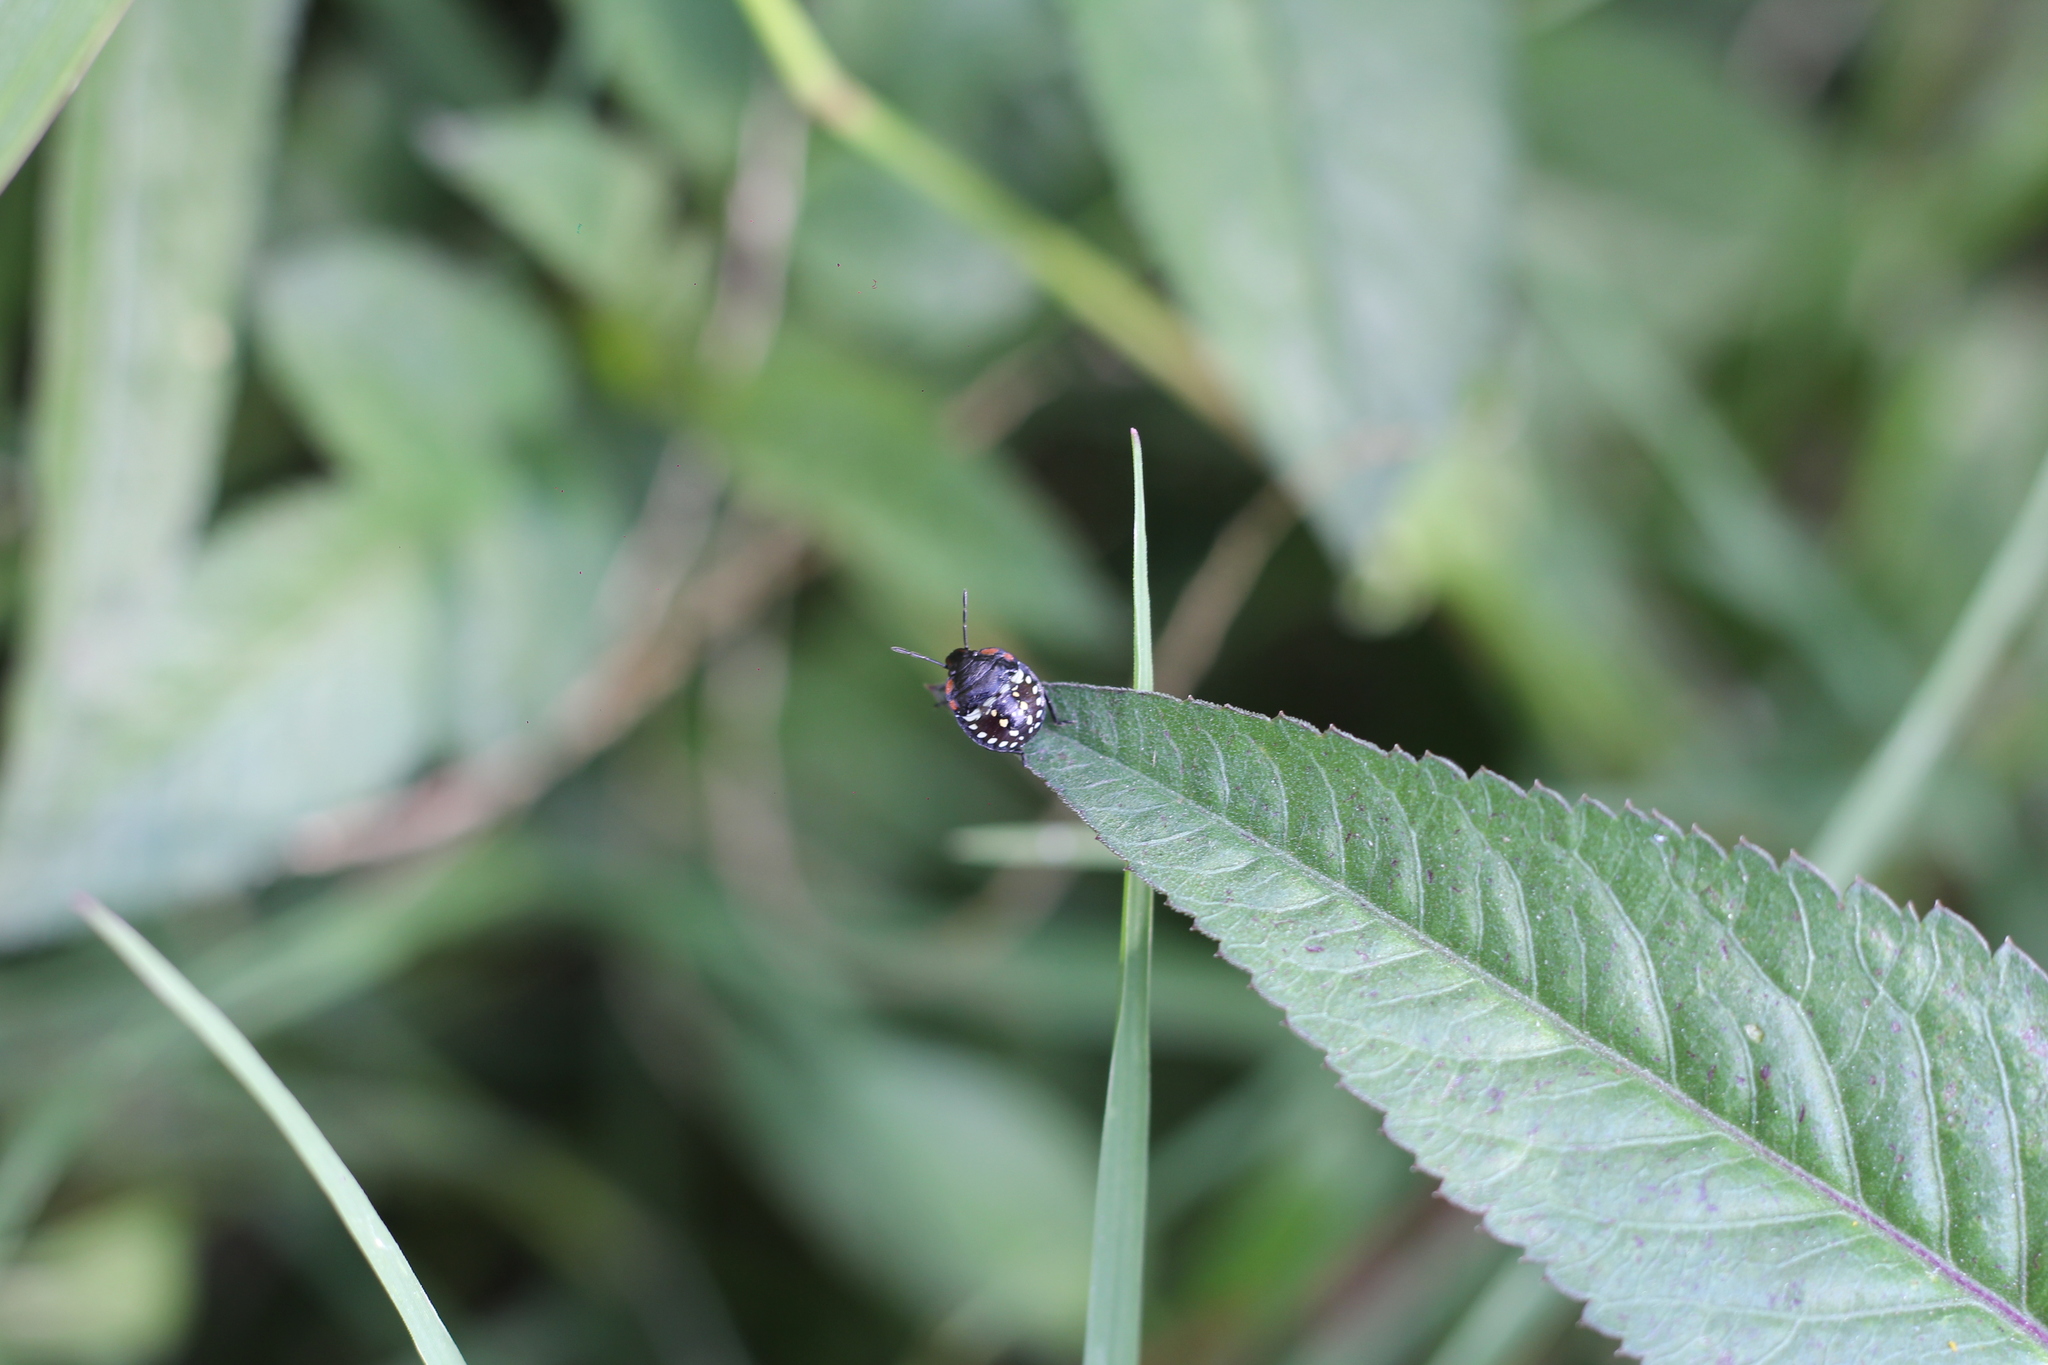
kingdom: Animalia
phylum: Arthropoda
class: Insecta
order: Hemiptera
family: Pentatomidae
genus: Nezara
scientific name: Nezara viridula
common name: Southern green stink bug
